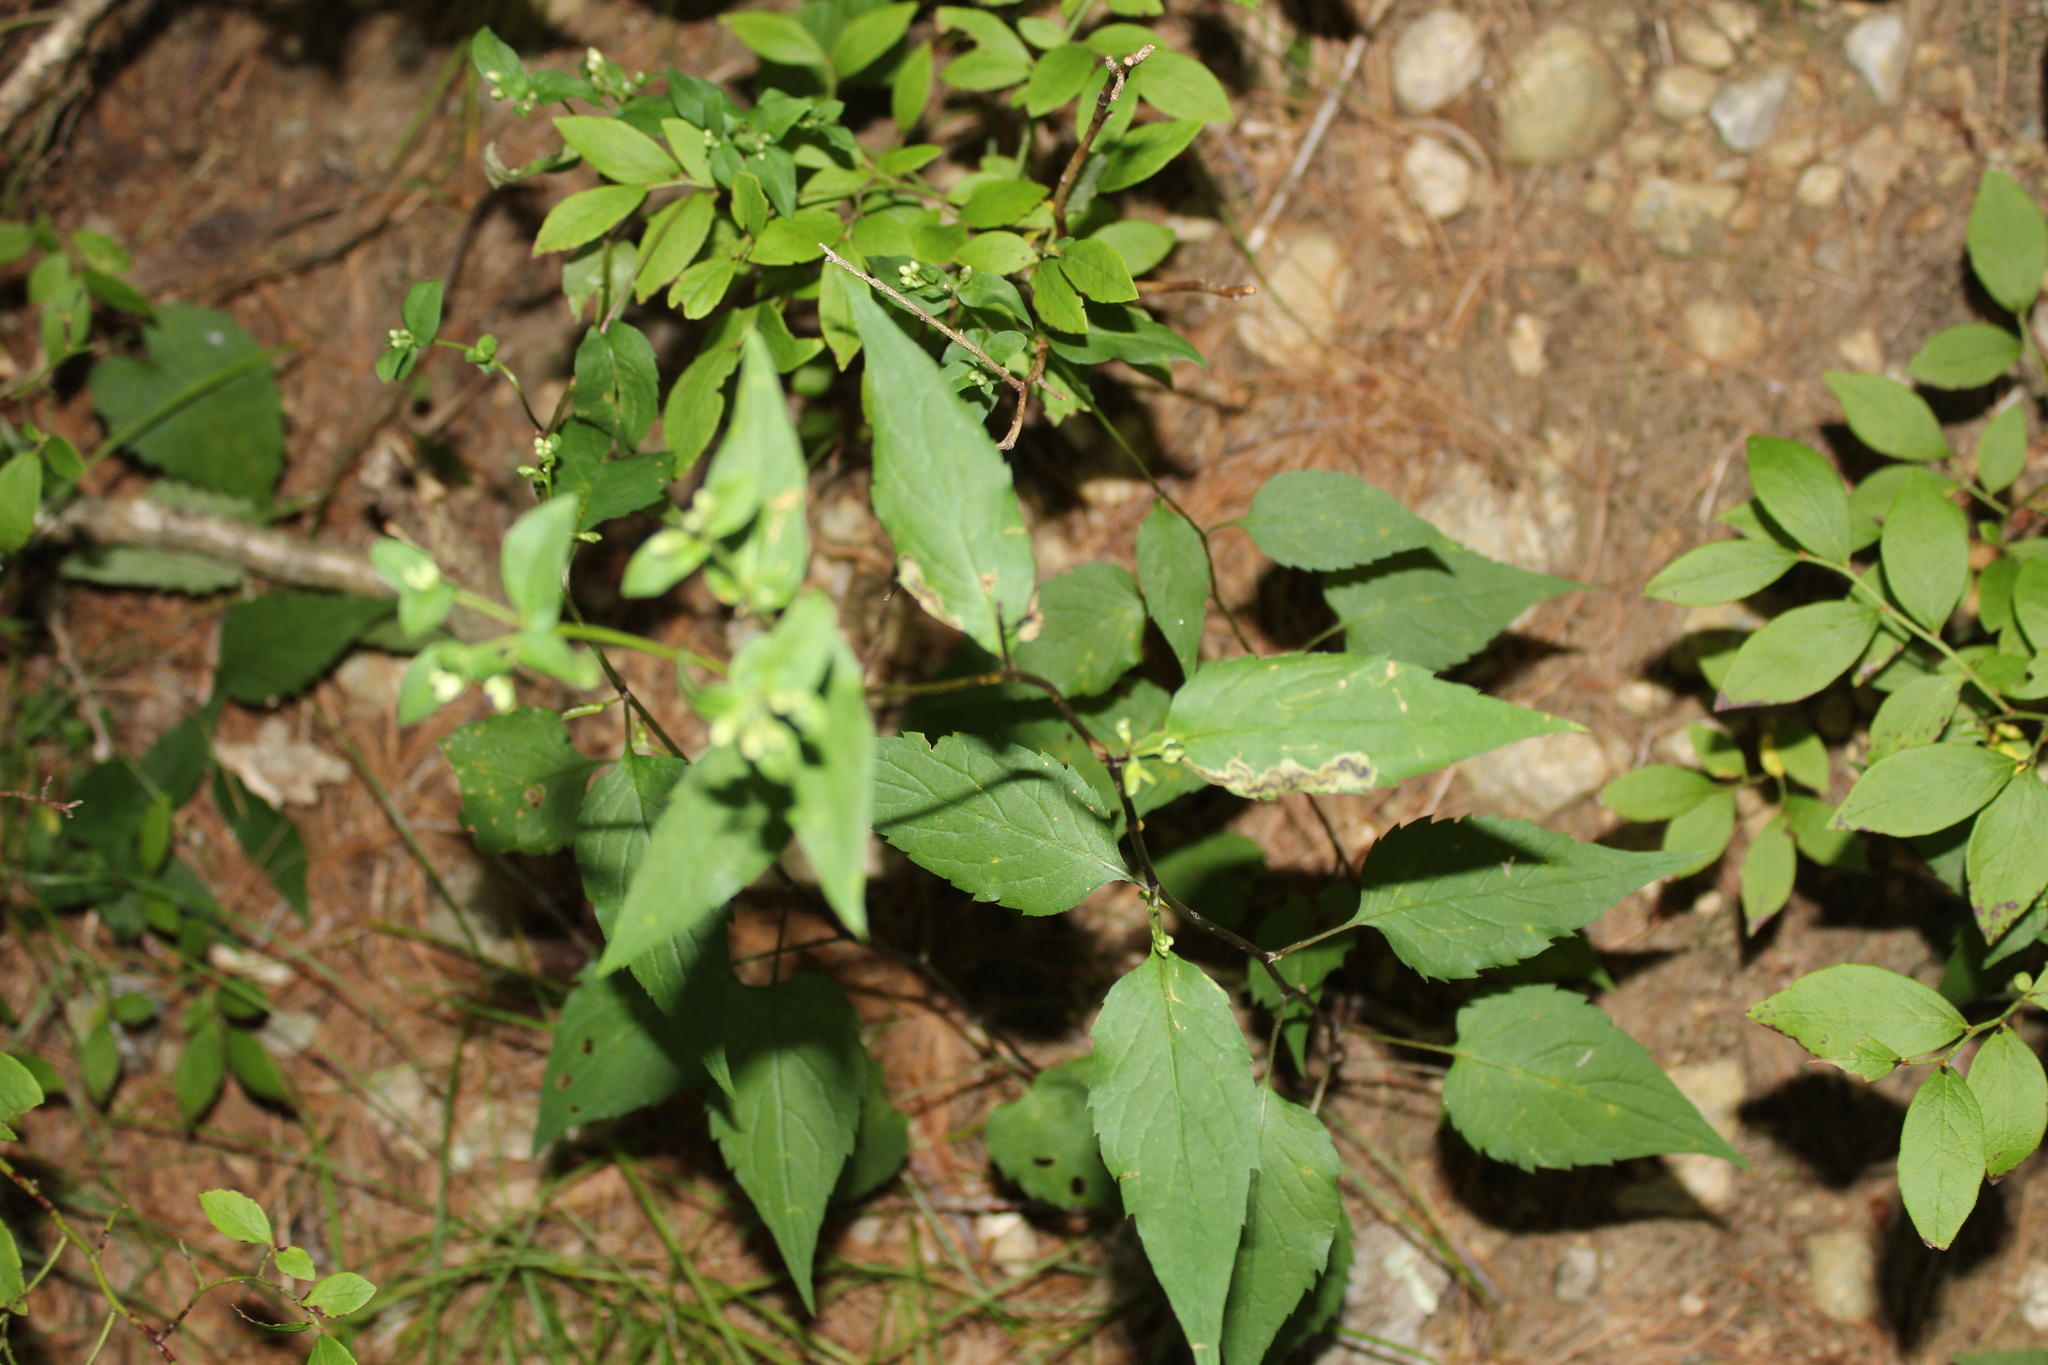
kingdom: Animalia
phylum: Arthropoda
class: Insecta
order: Diptera
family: Agromyzidae
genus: Nemorimyza
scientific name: Nemorimyza posticata
